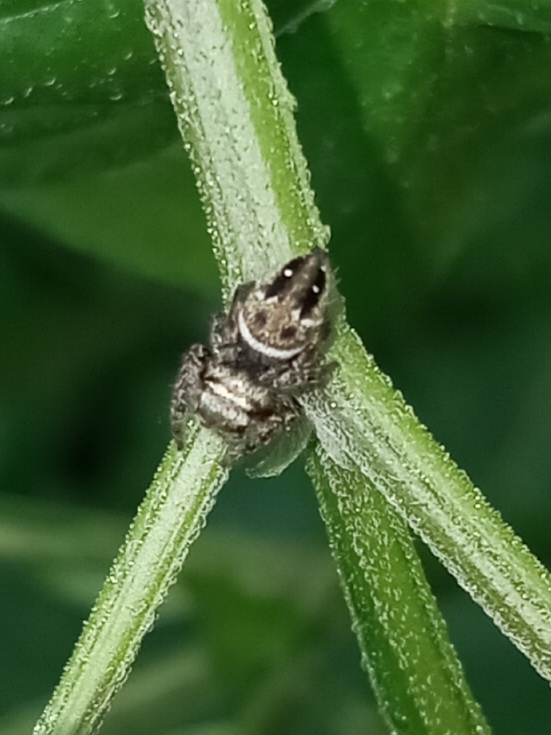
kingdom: Animalia
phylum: Arthropoda
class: Arachnida
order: Araneae
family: Salticidae
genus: Phidippus
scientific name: Phidippus clarus
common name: Brilliant jumping spider
